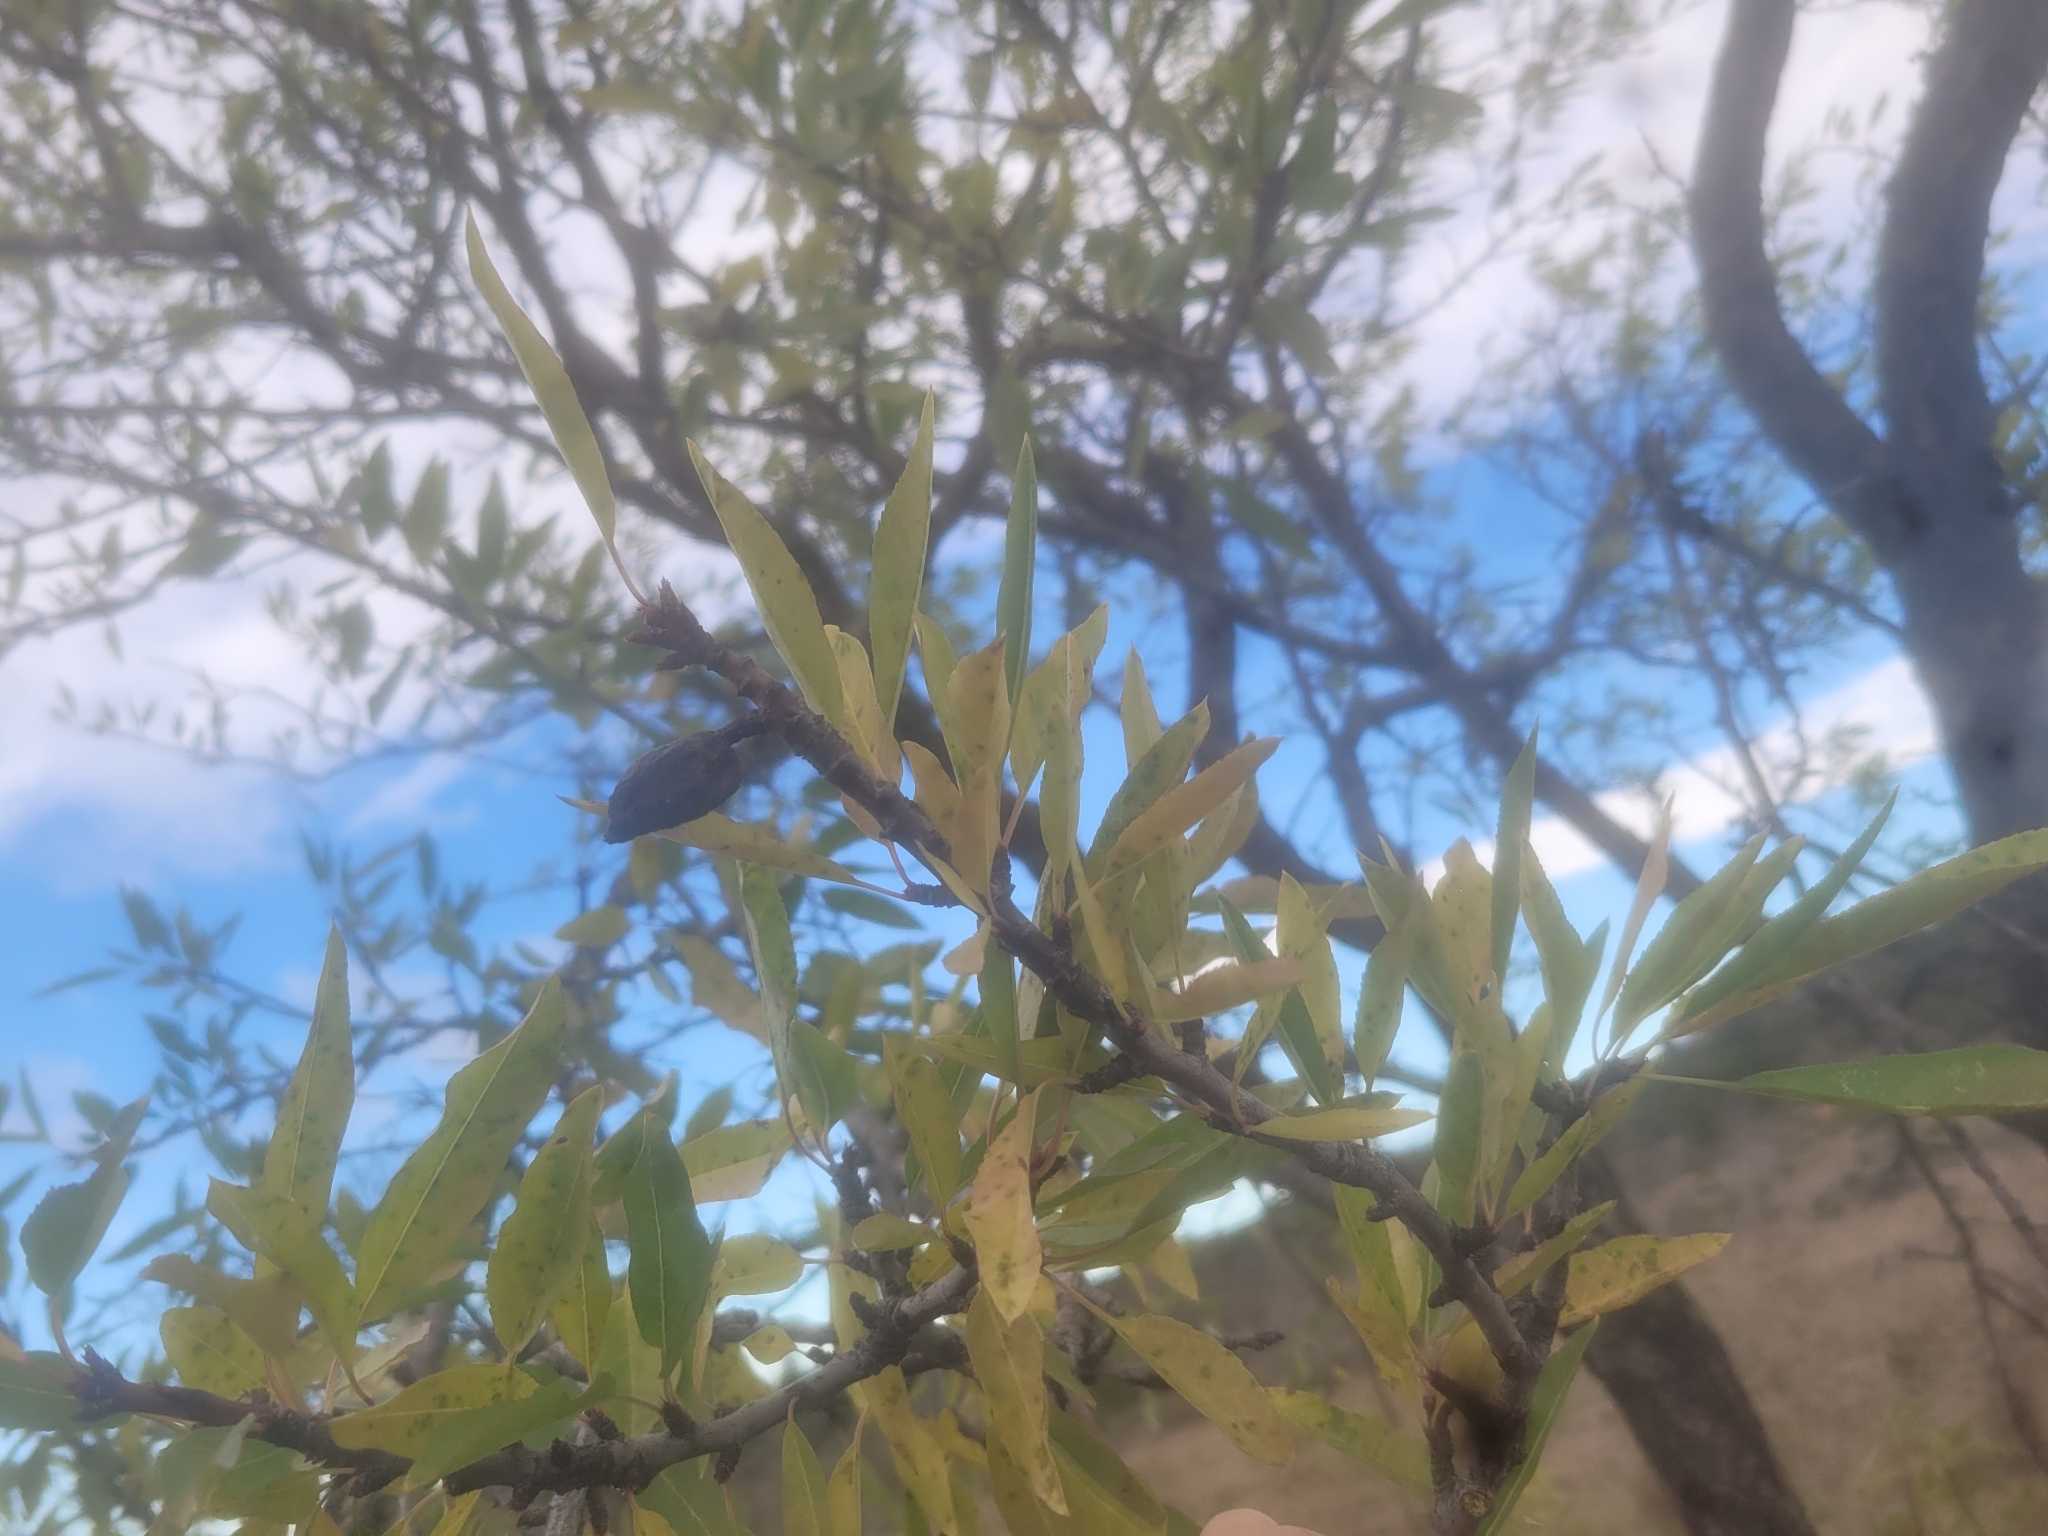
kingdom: Plantae
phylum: Tracheophyta
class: Magnoliopsida
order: Rosales
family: Rosaceae
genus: Prunus
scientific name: Prunus amygdalus
